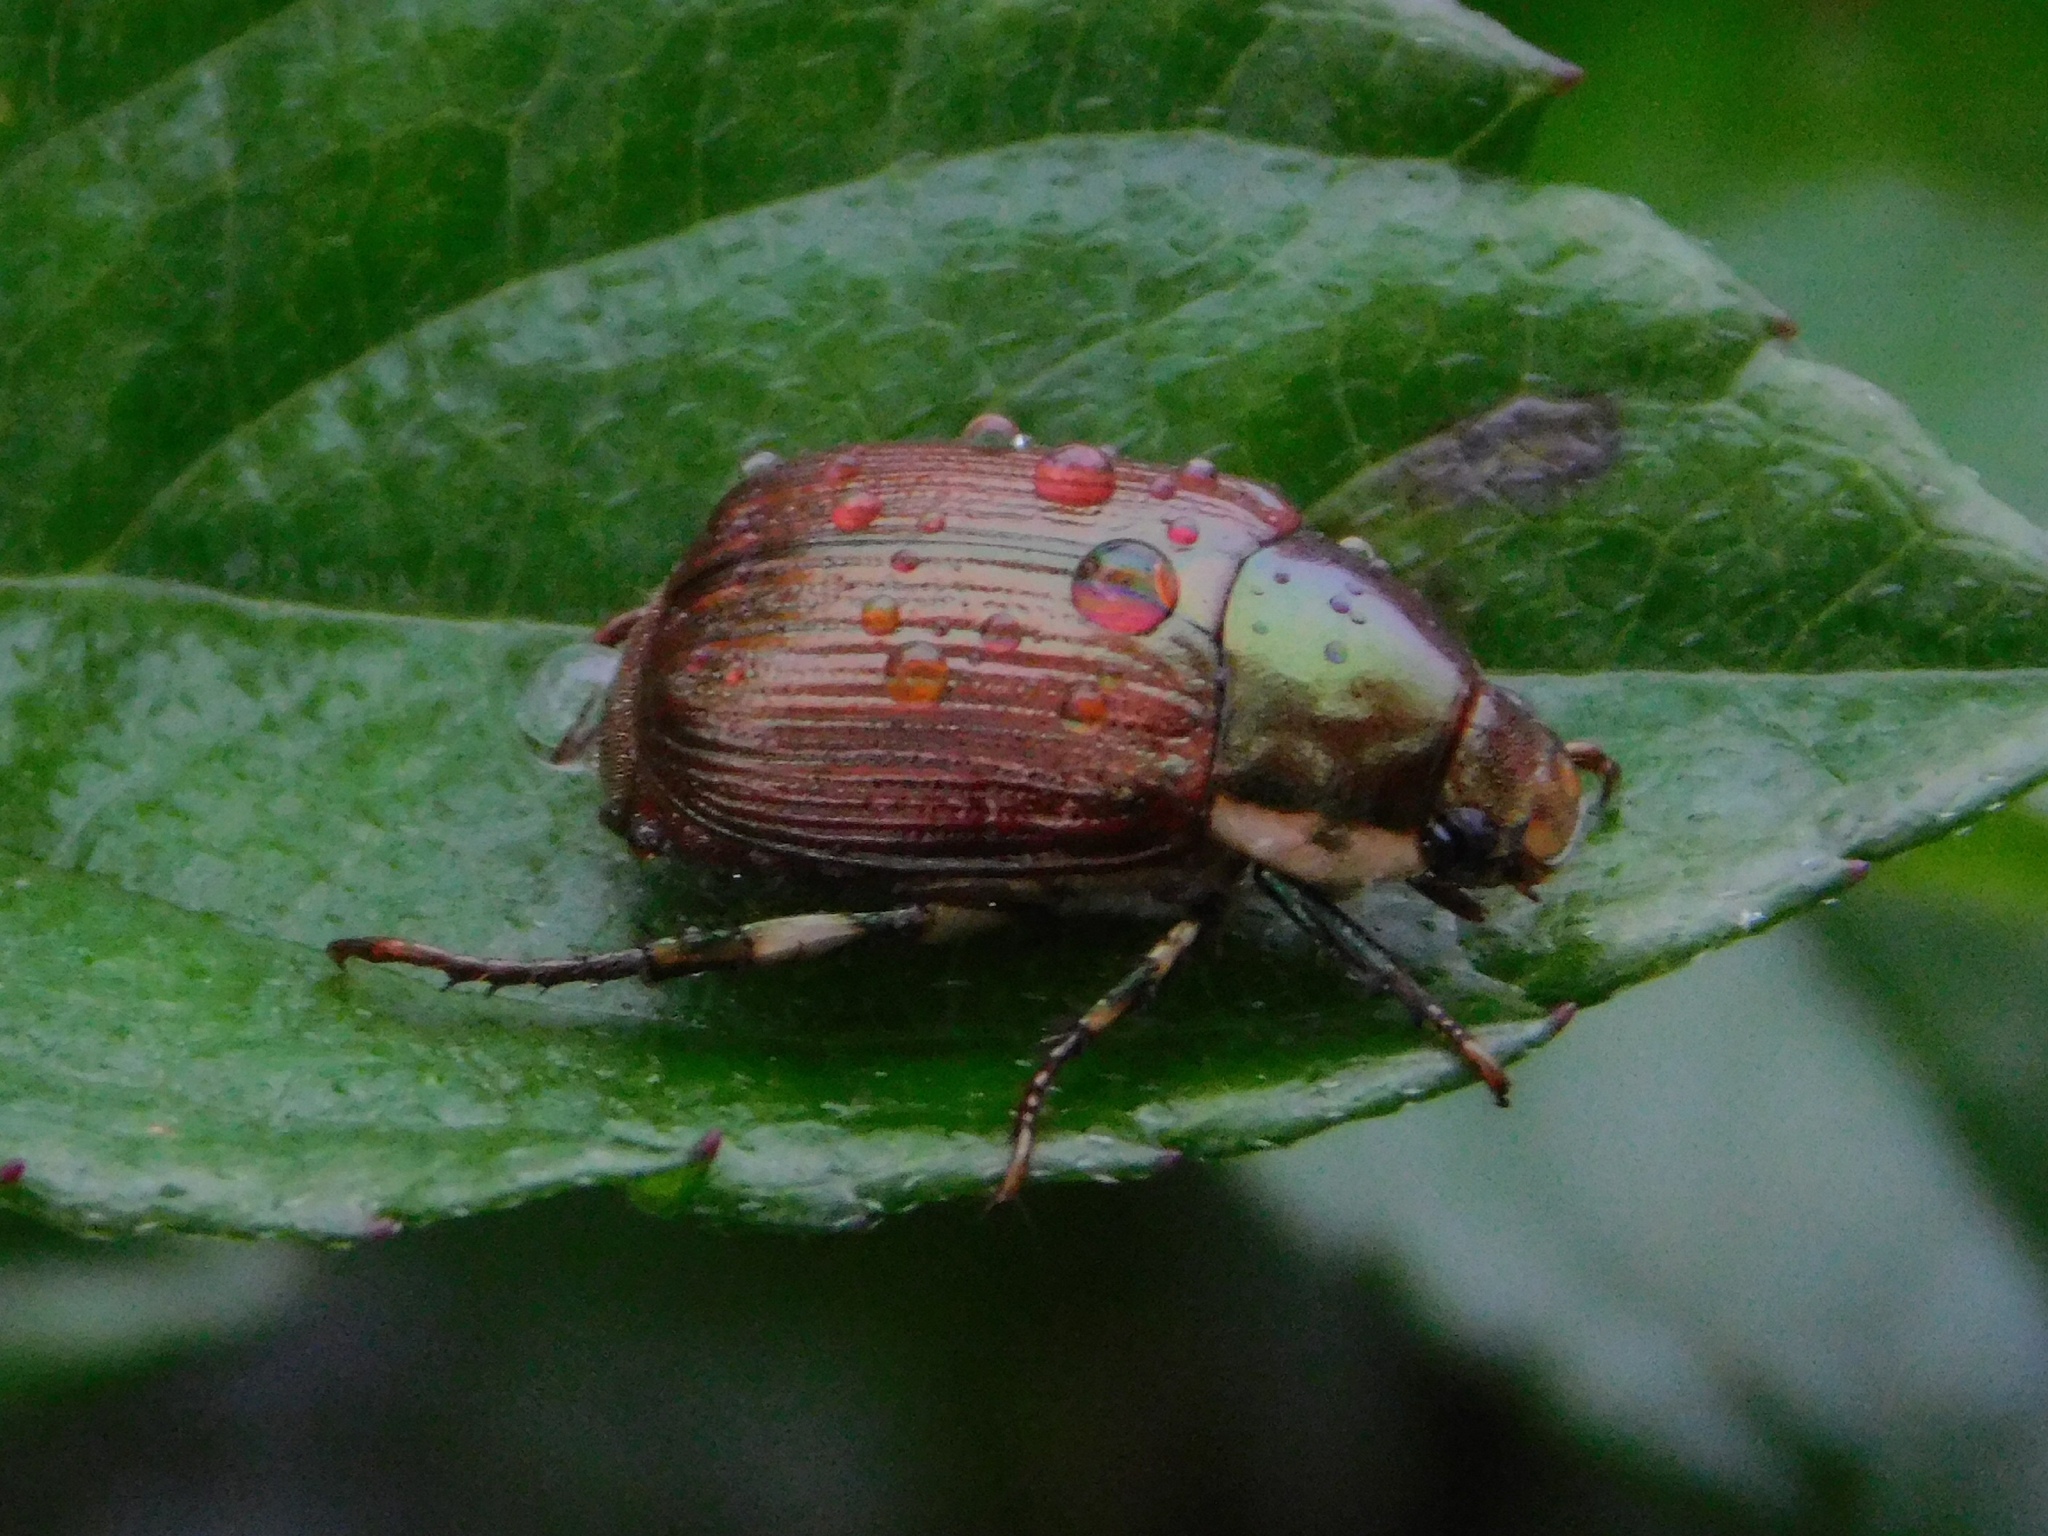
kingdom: Animalia
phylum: Arthropoda
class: Insecta
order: Coleoptera
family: Scarabaeidae
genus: Callistethus
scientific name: Callistethus marginatus
